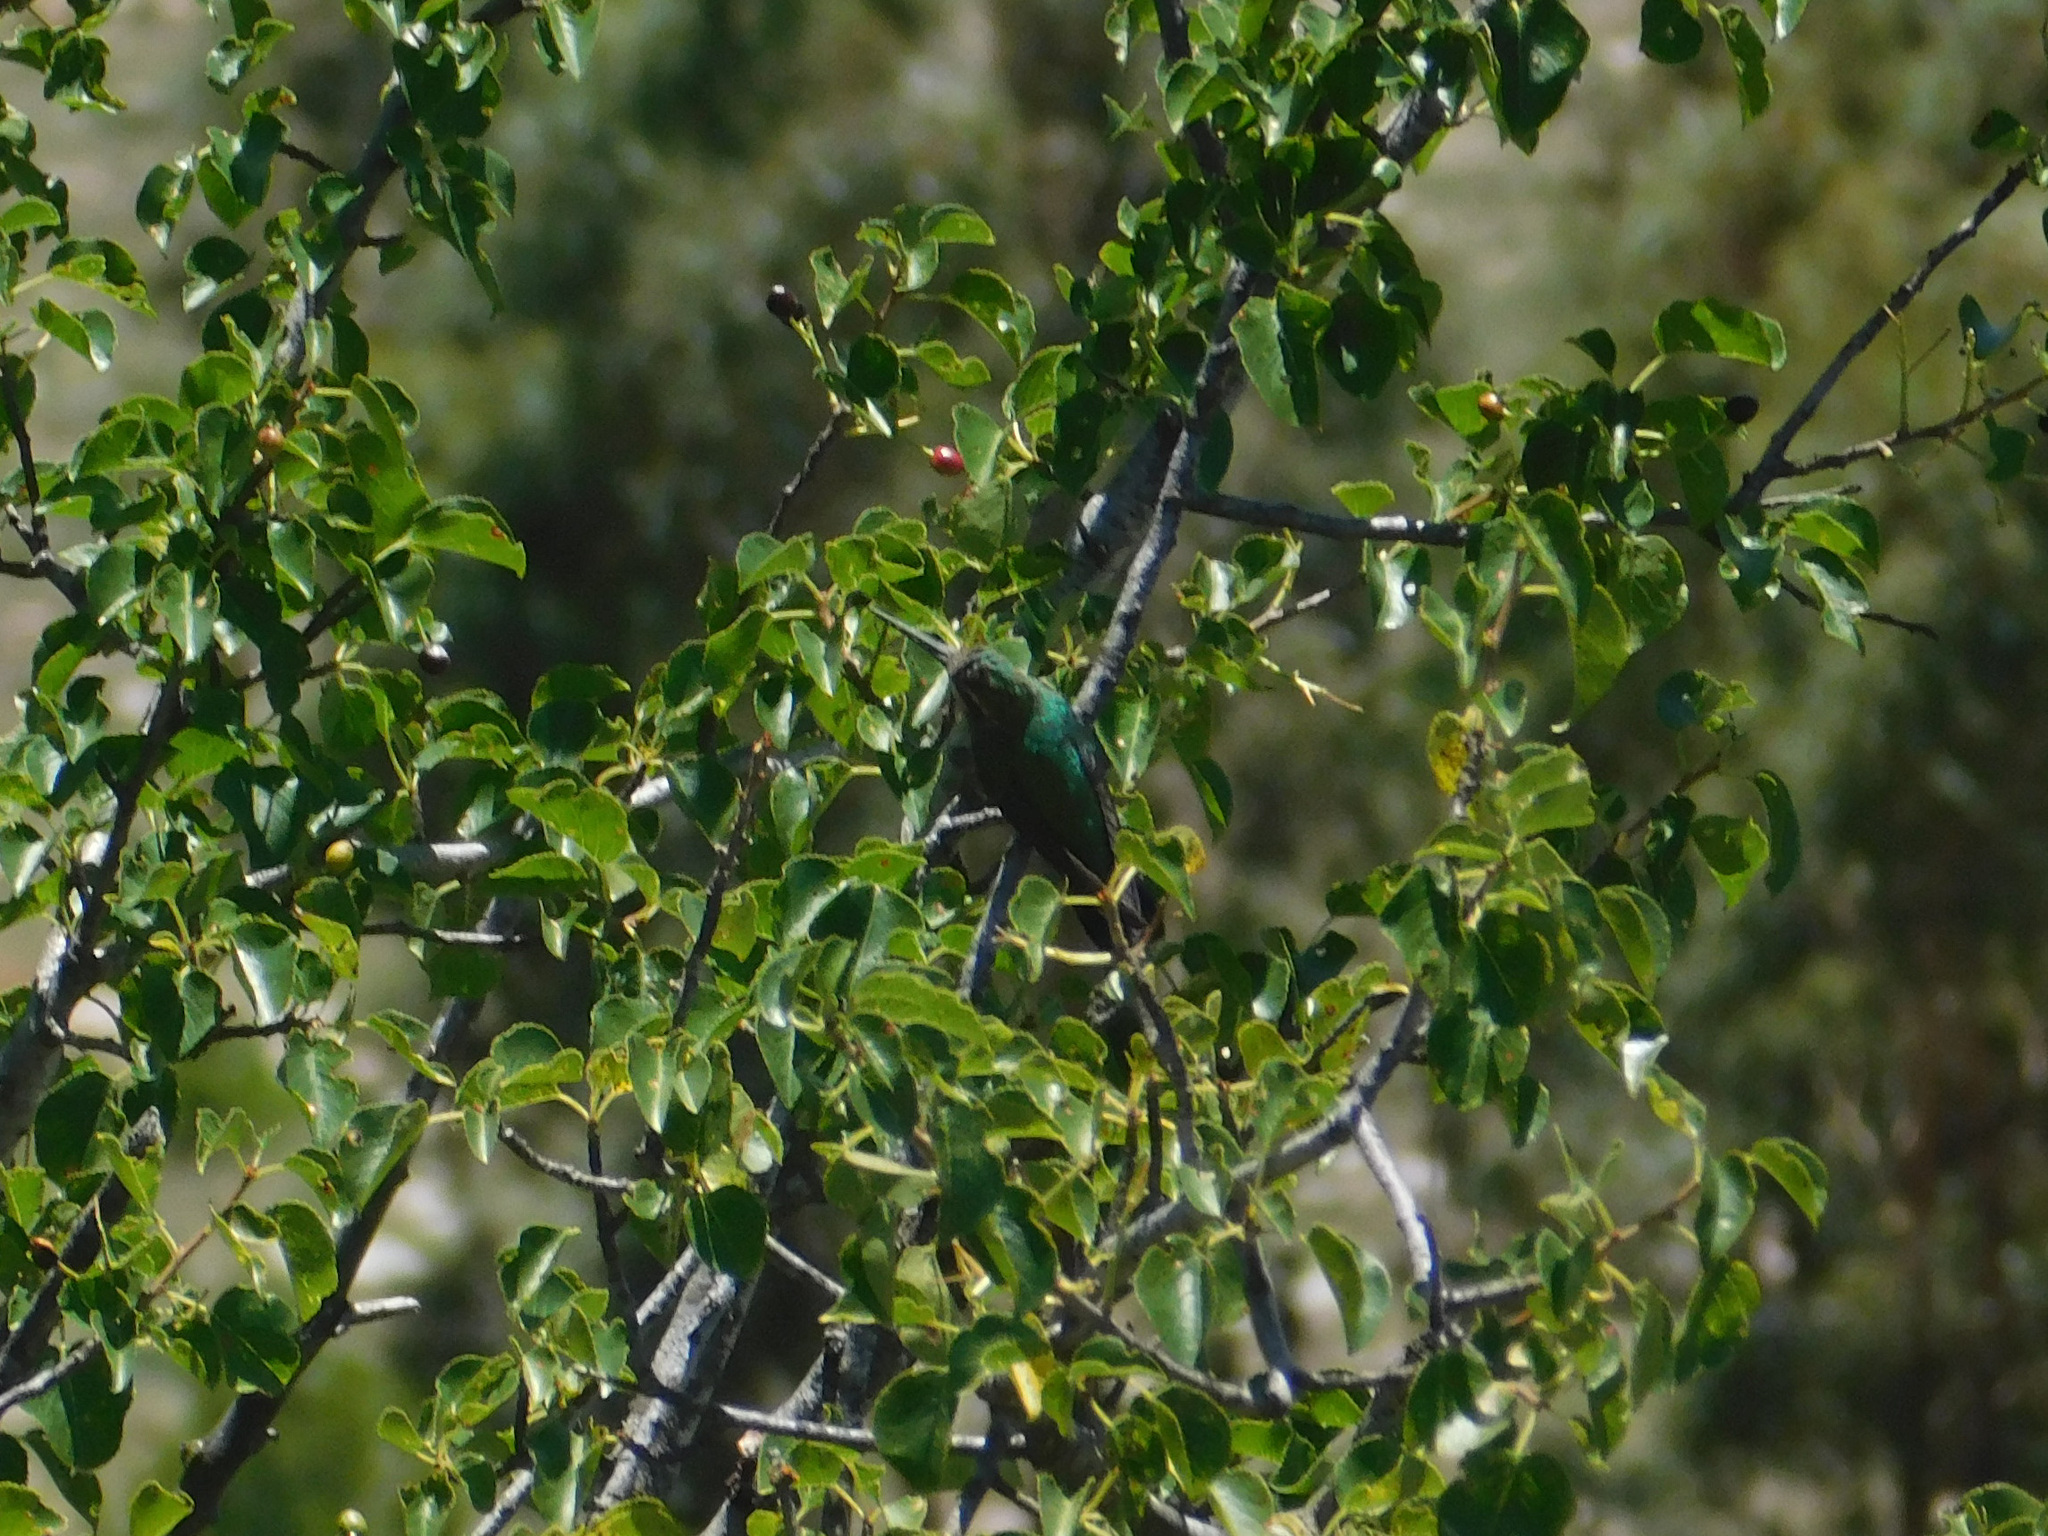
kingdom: Animalia
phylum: Chordata
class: Aves
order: Apodiformes
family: Trochilidae
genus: Chlorostilbon
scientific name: Chlorostilbon lucidus
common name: Glittering-bellied emerald
